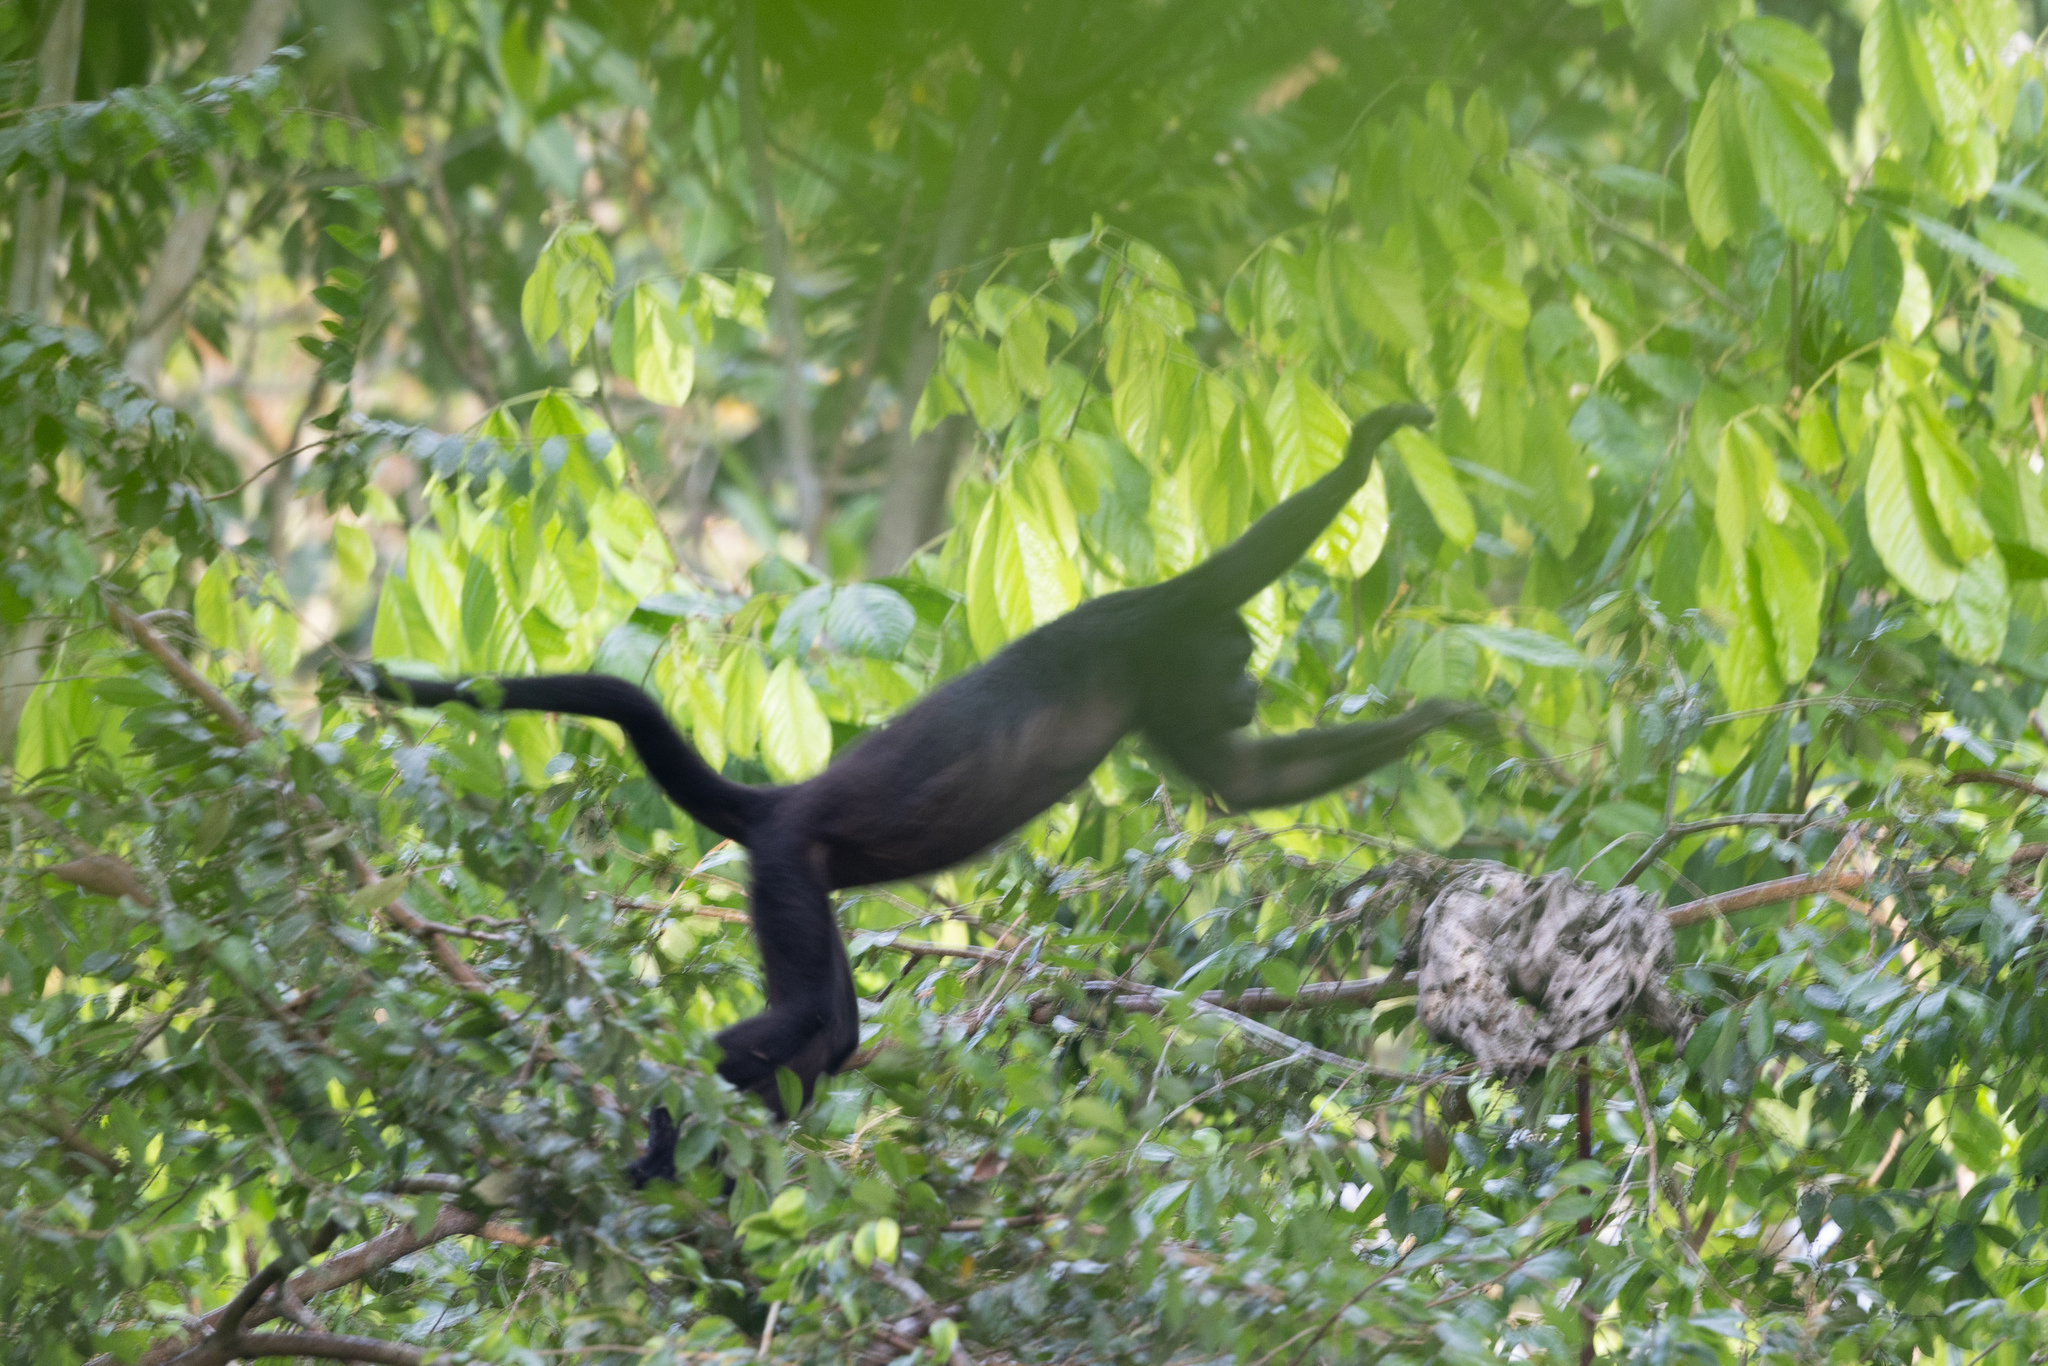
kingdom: Animalia
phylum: Chordata
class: Mammalia
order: Primates
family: Atelidae
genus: Alouatta
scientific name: Alouatta palliata
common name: Mantled howler
